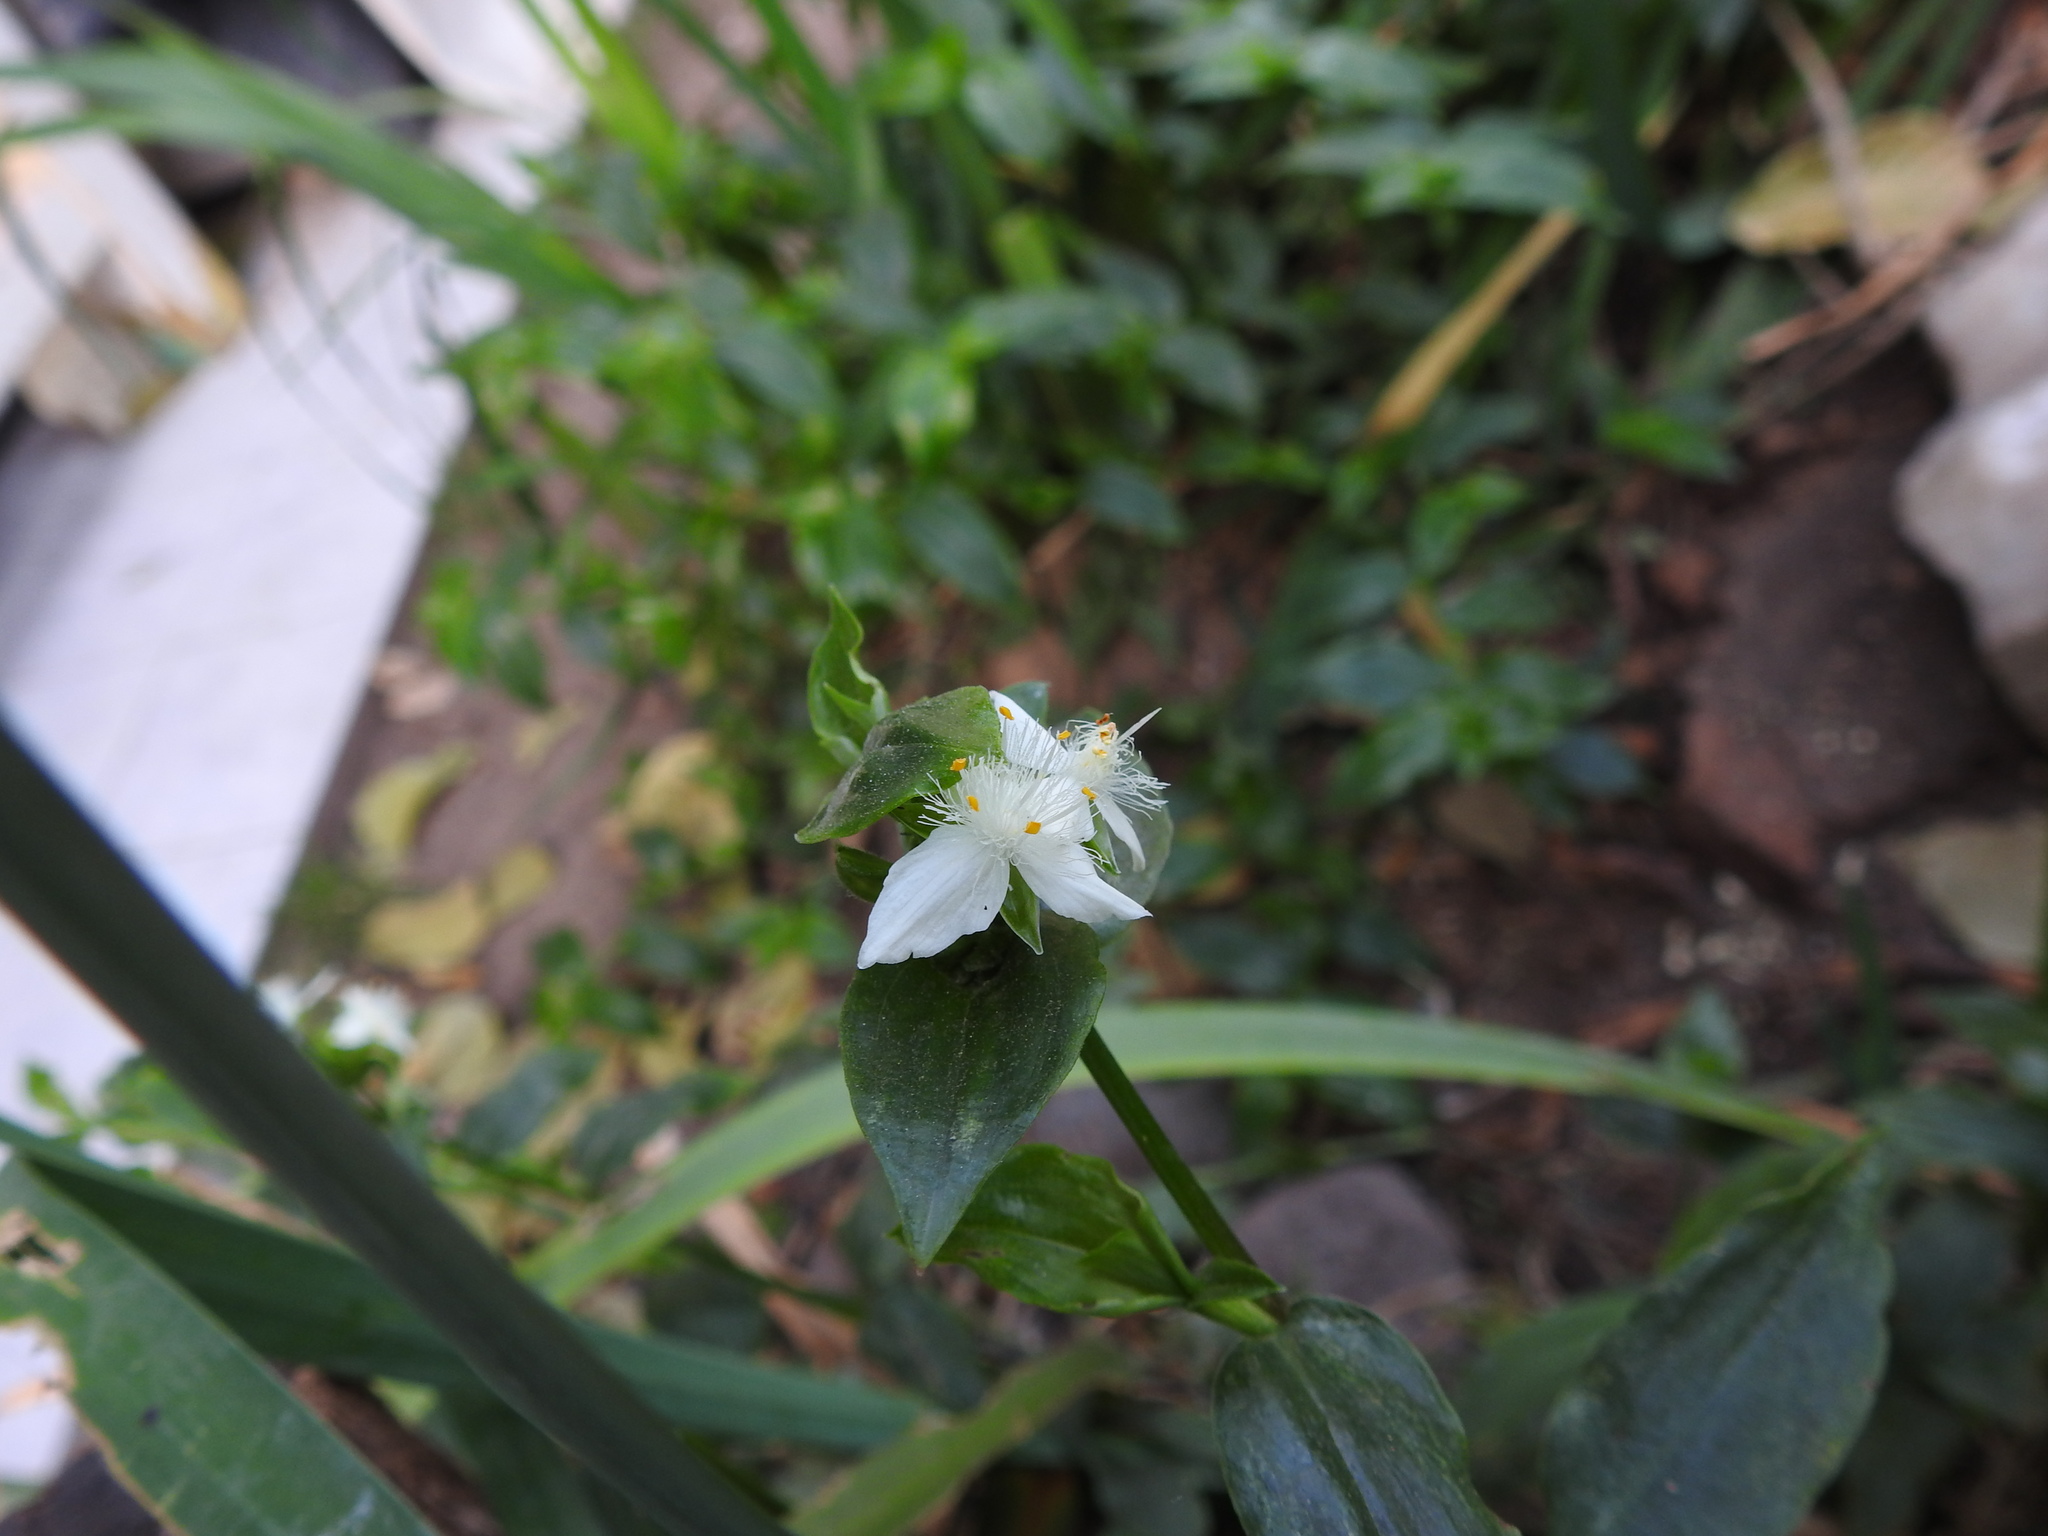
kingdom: Plantae
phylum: Tracheophyta
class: Liliopsida
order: Commelinales
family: Commelinaceae
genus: Tradescantia
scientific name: Tradescantia fluminensis
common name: Wandering-jew
